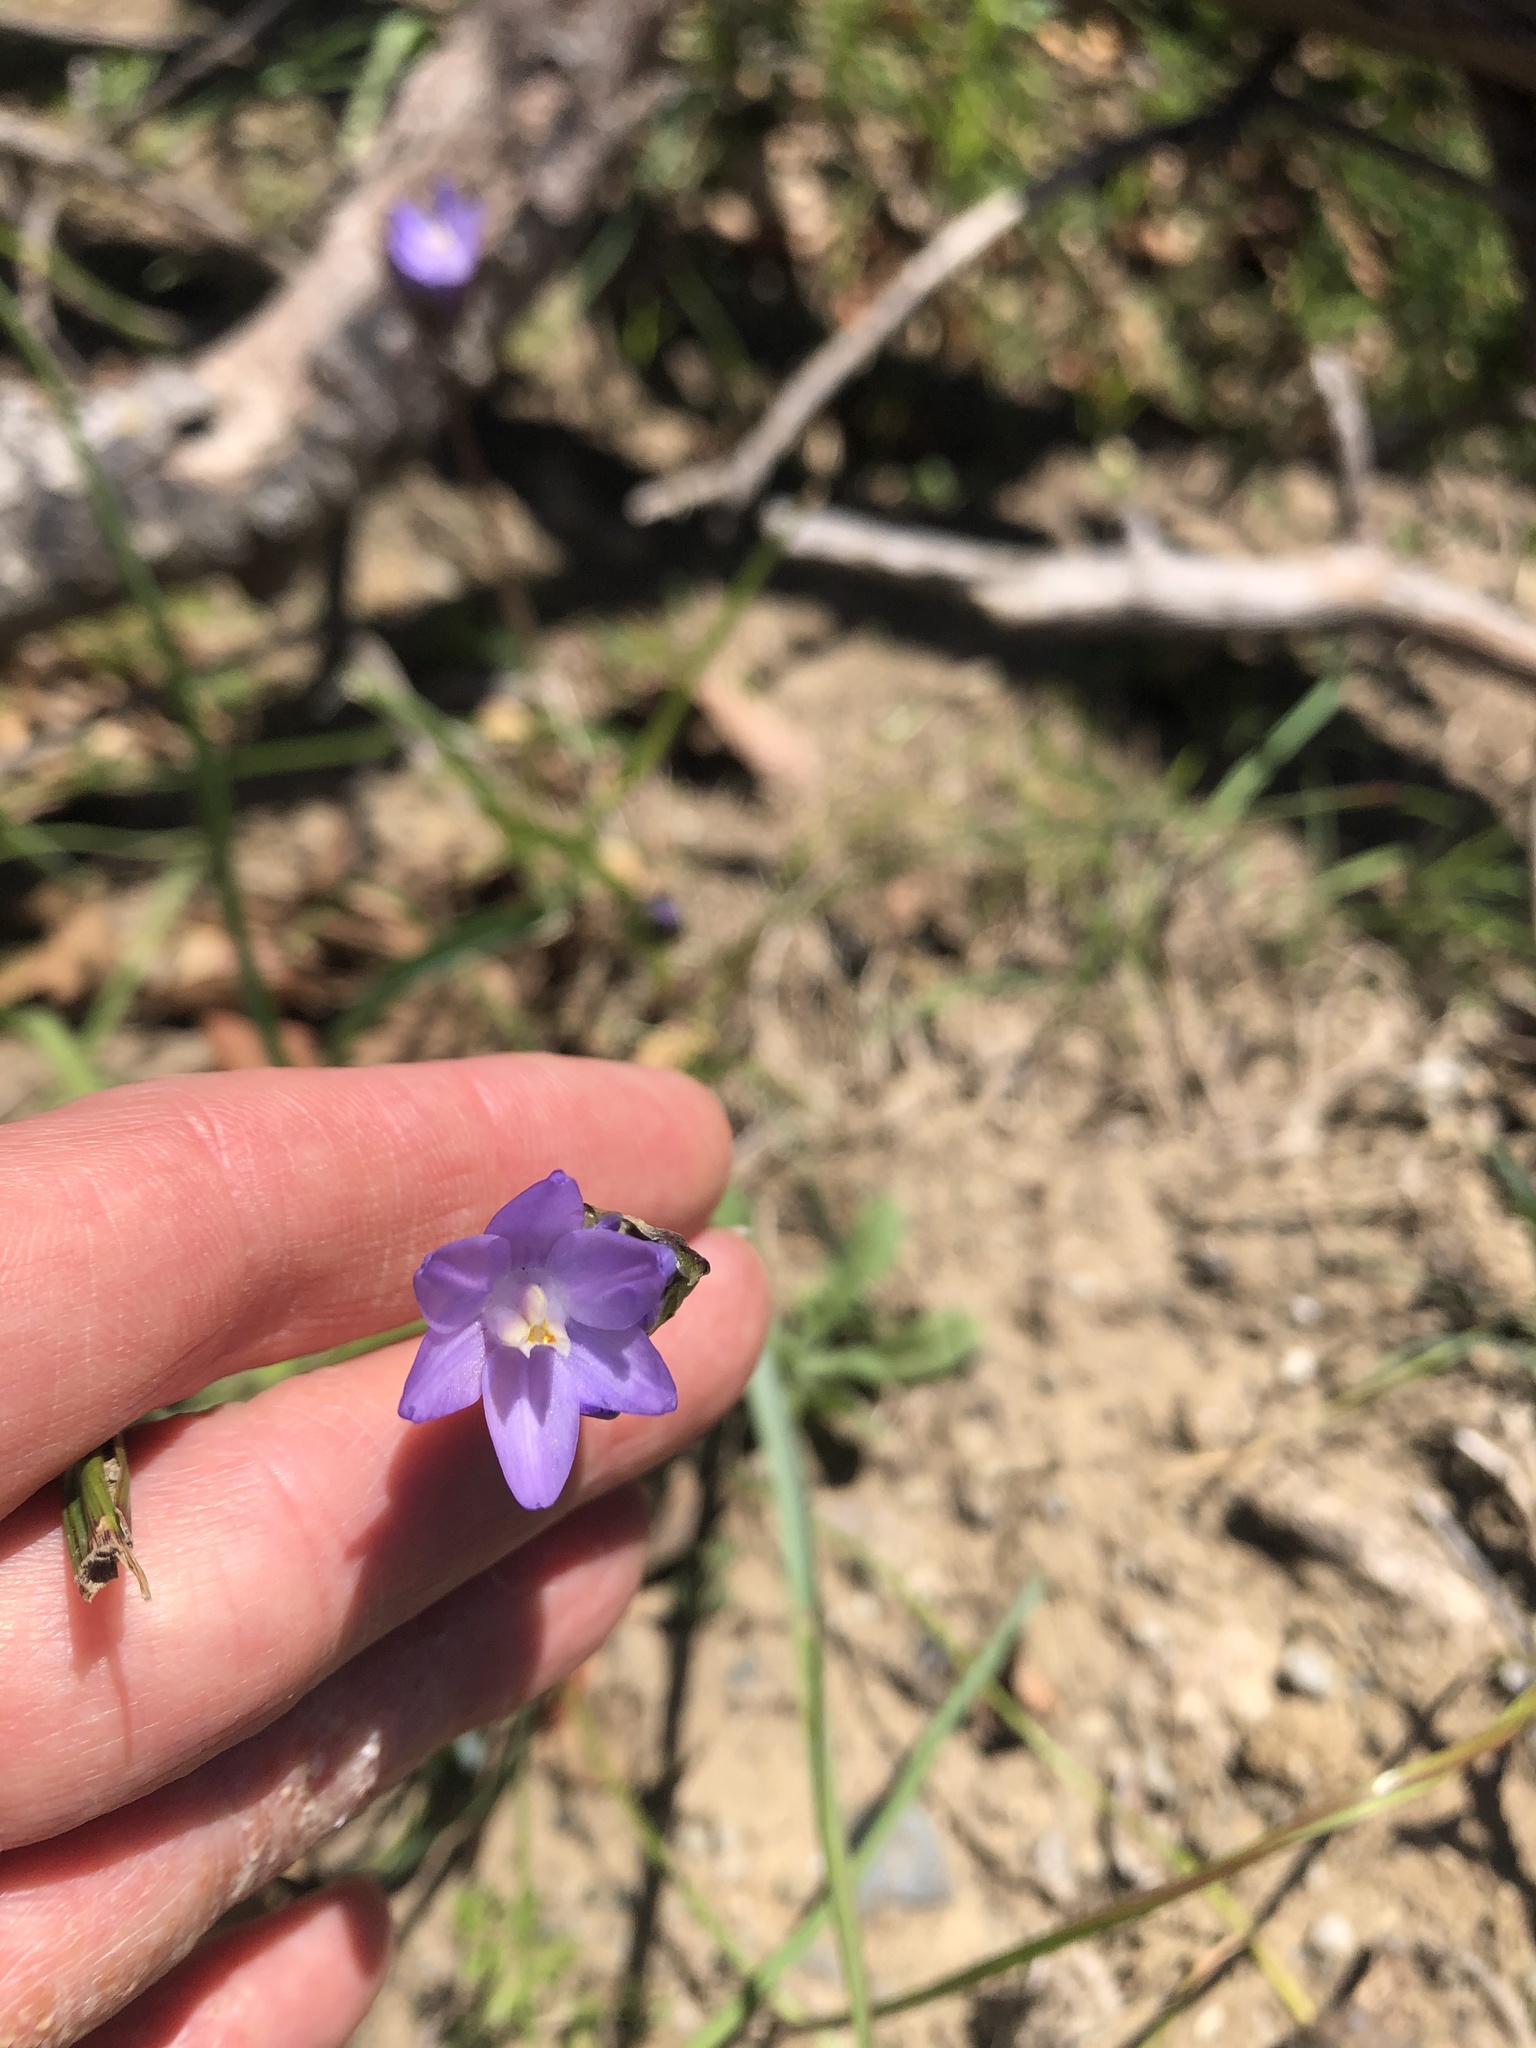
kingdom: Plantae
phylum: Tracheophyta
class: Liliopsida
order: Asparagales
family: Asparagaceae
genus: Dipterostemon
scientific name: Dipterostemon capitatus
